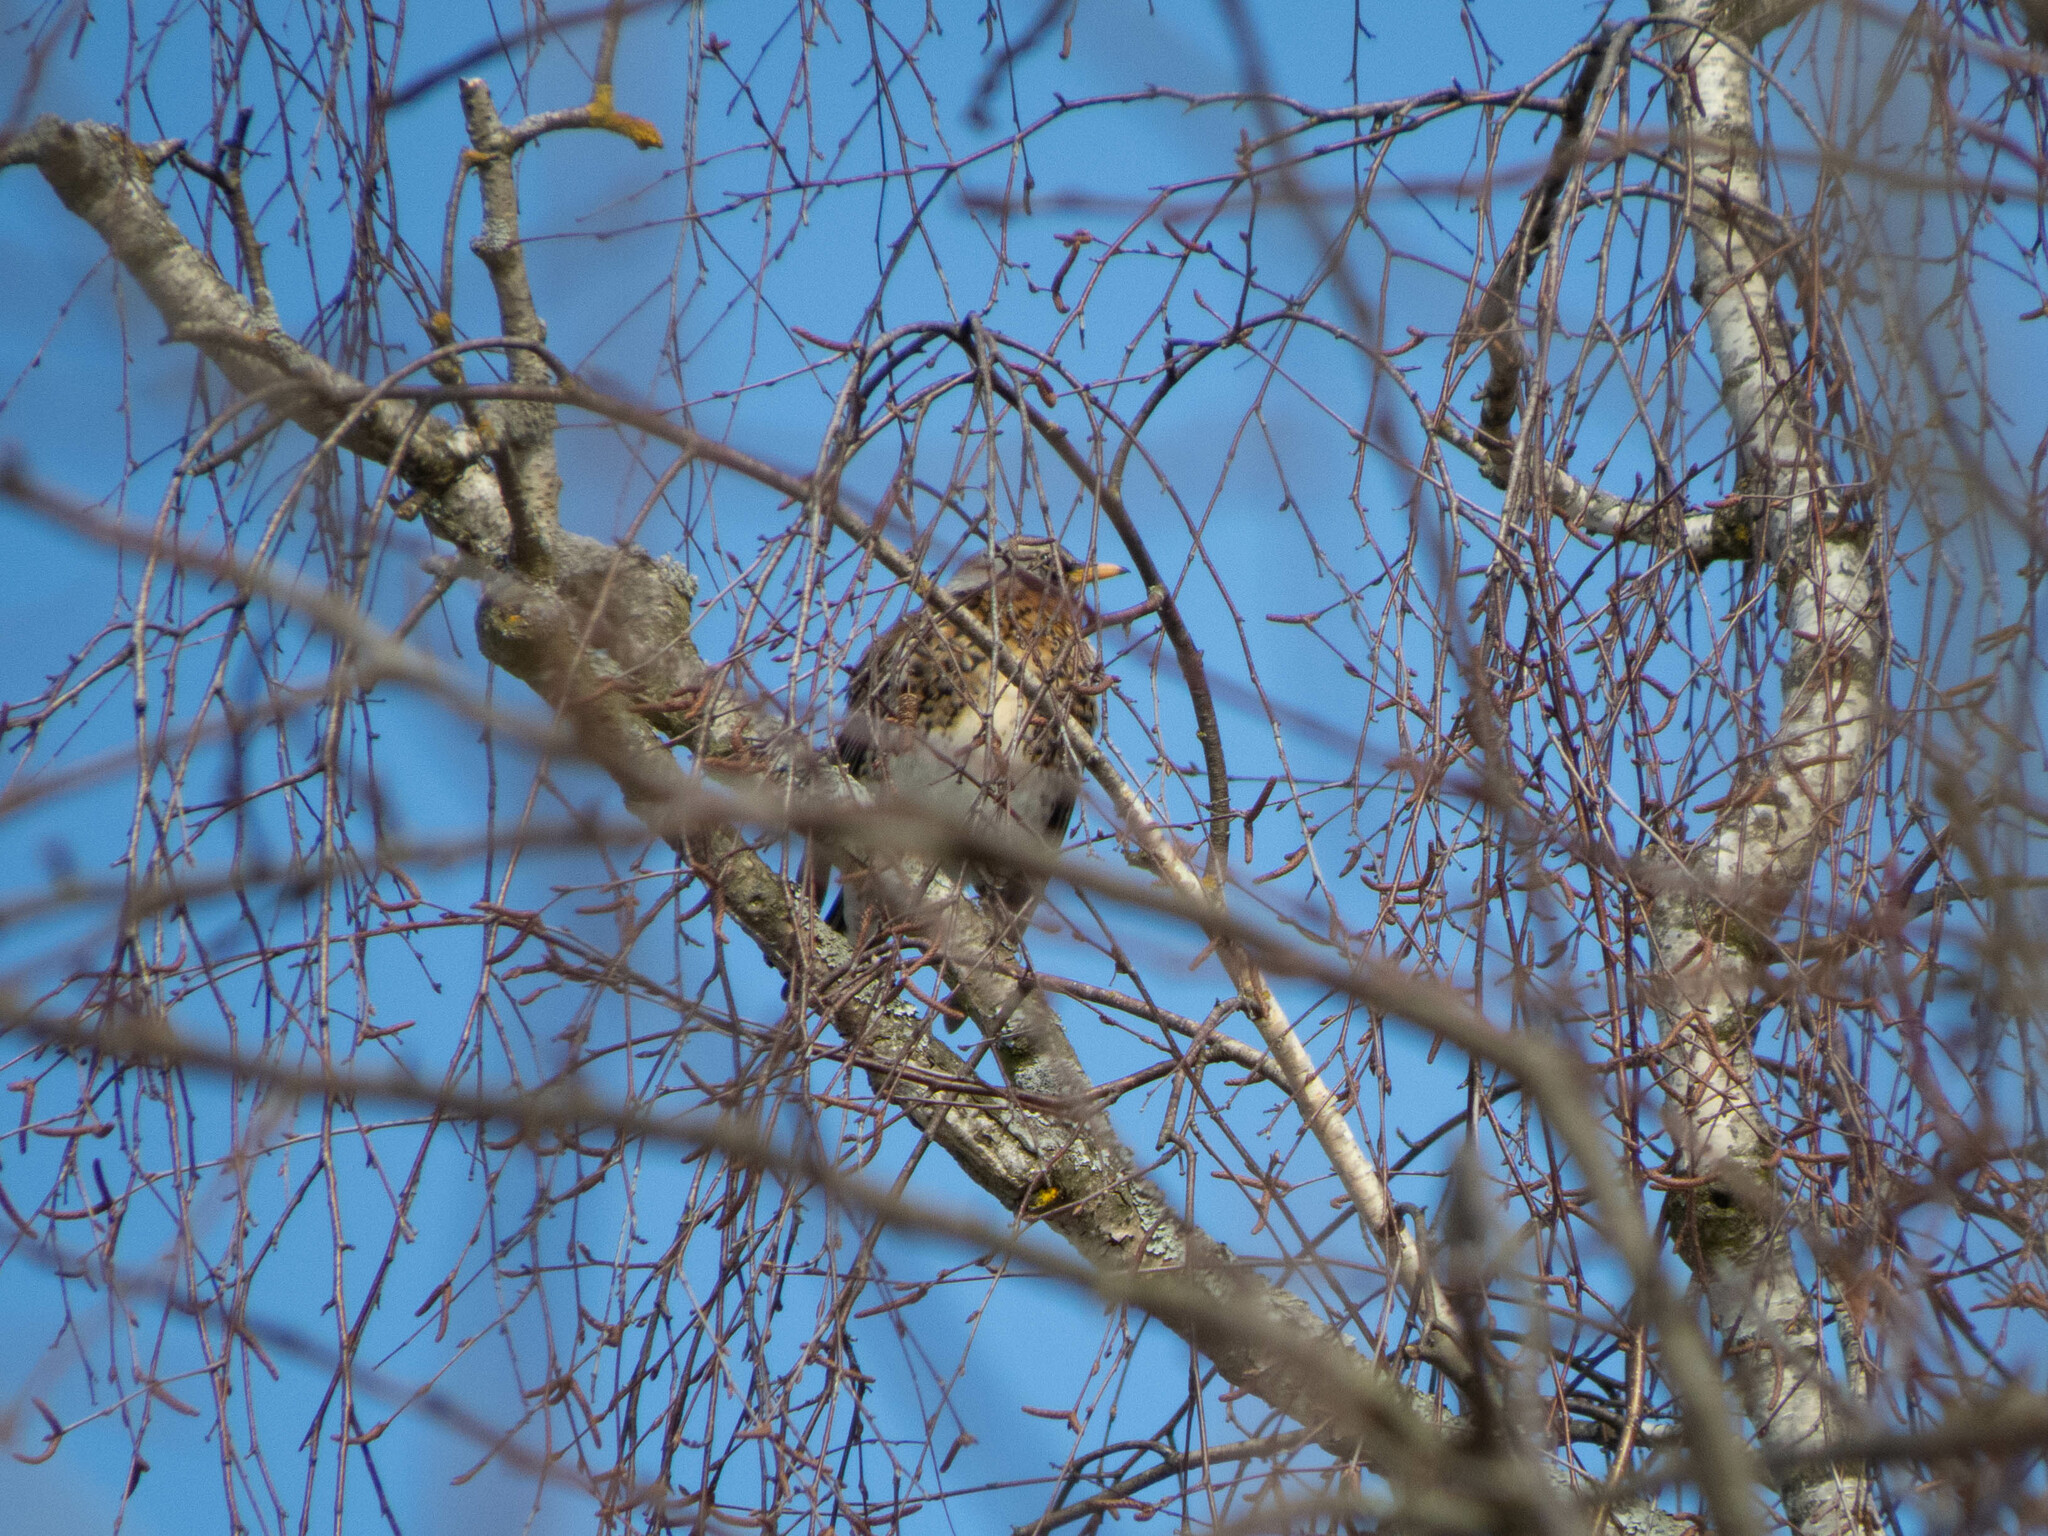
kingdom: Animalia
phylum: Chordata
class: Aves
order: Passeriformes
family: Turdidae
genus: Turdus
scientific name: Turdus pilaris
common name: Fieldfare
